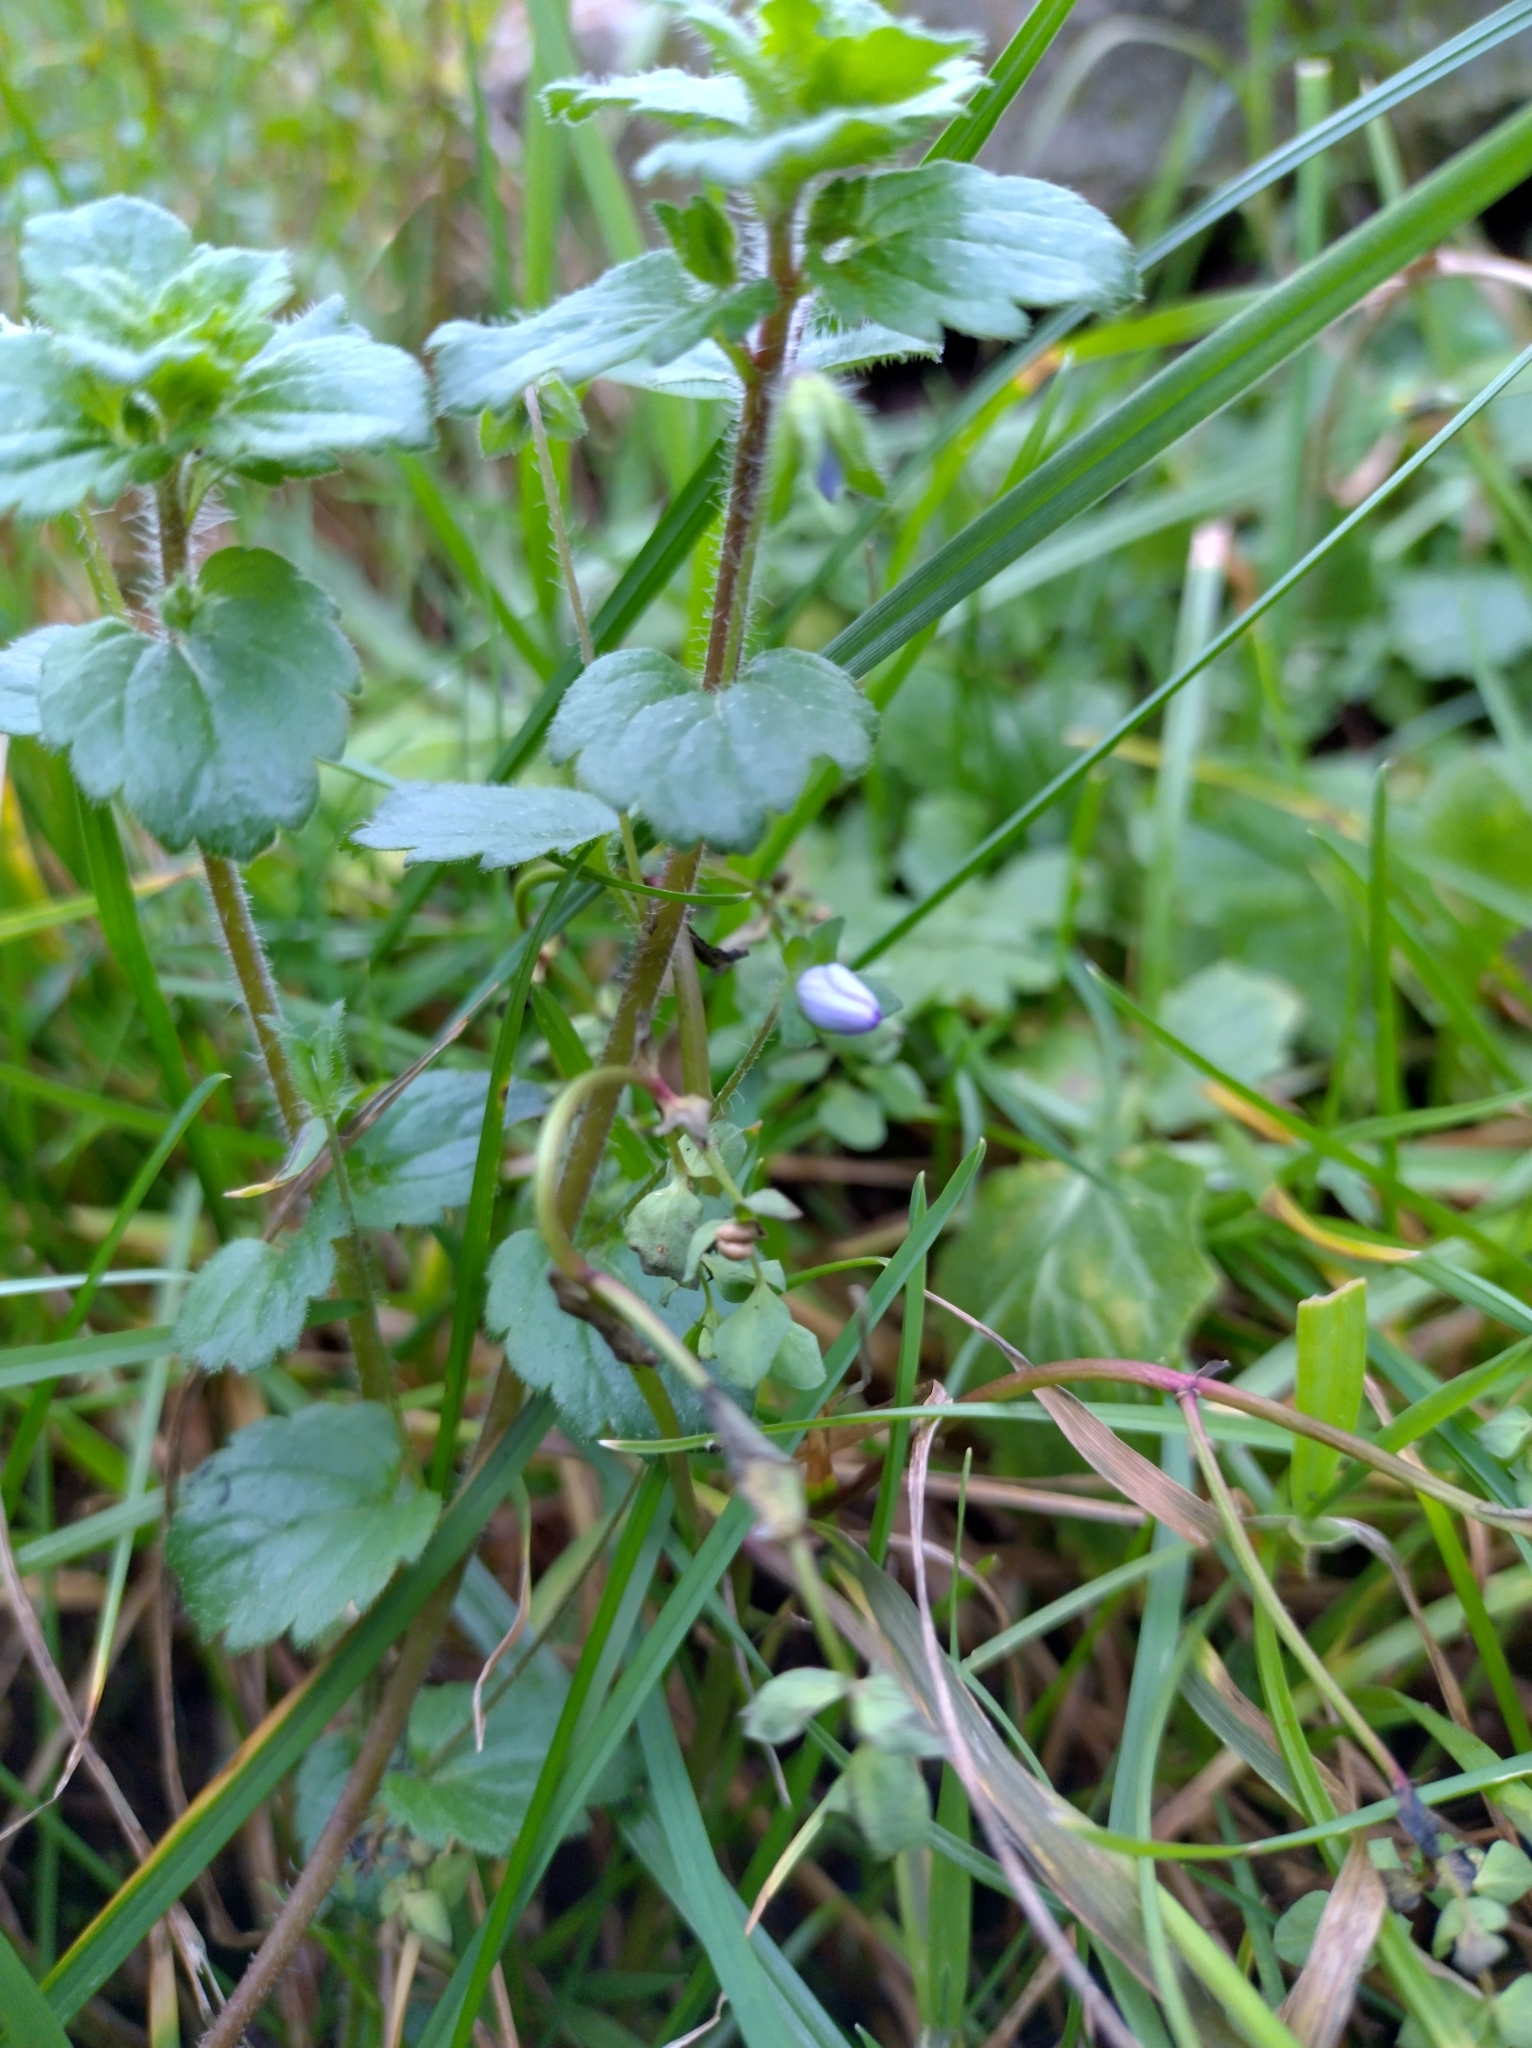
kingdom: Plantae
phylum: Tracheophyta
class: Magnoliopsida
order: Lamiales
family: Plantaginaceae
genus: Veronica
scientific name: Veronica persica
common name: Common field-speedwell
